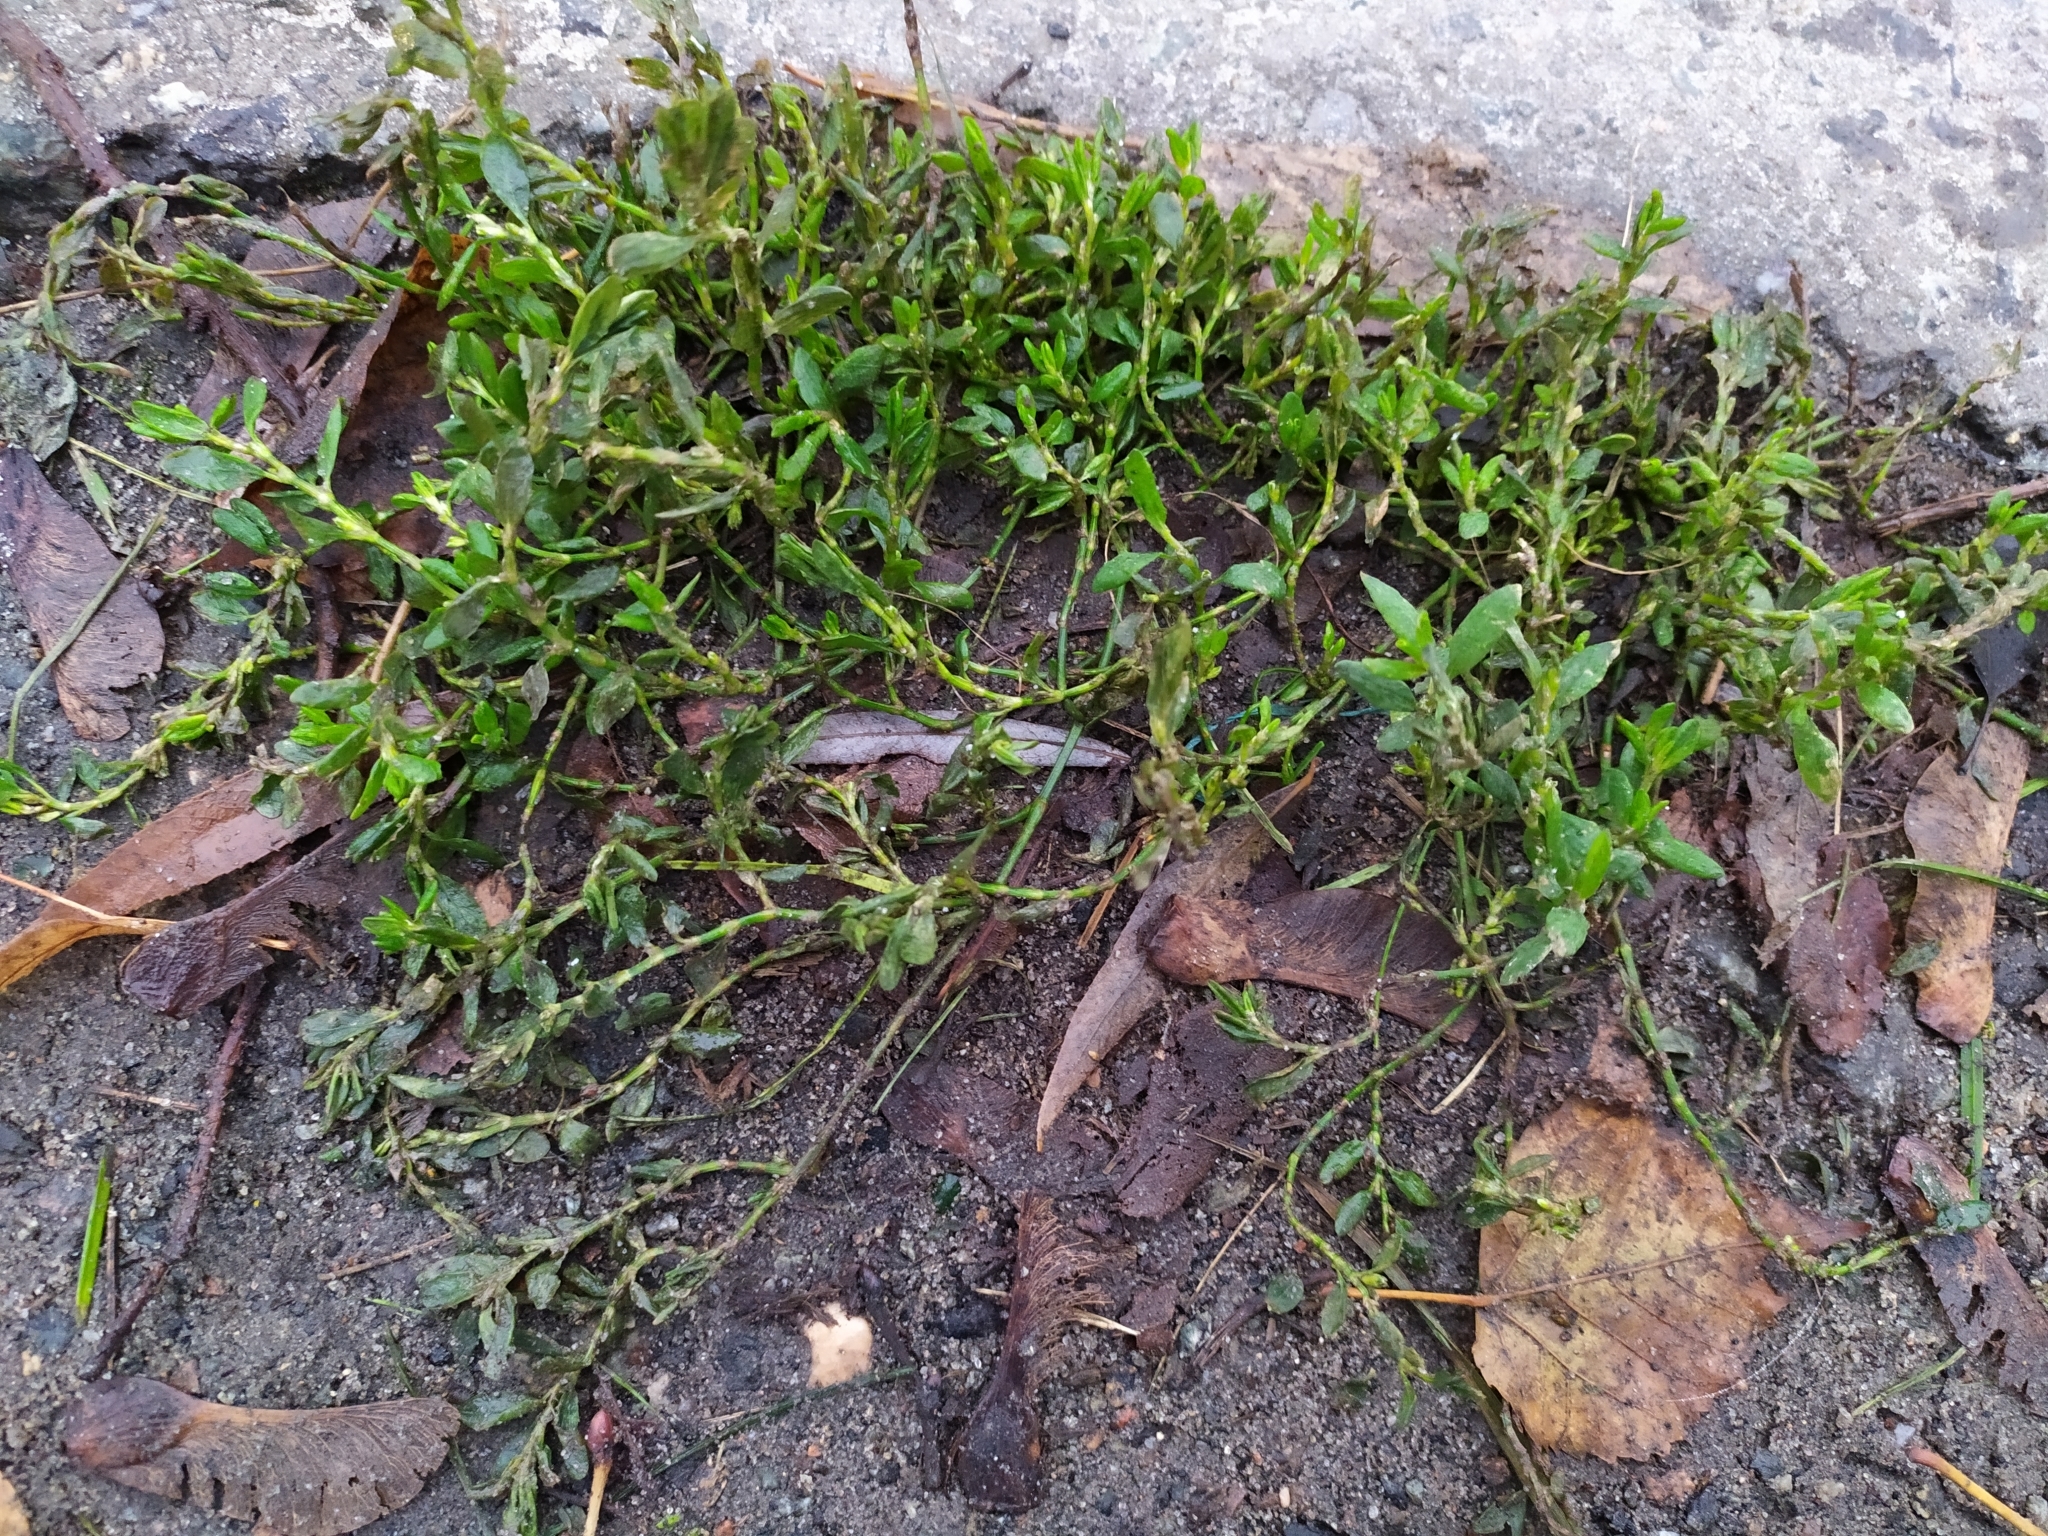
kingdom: Plantae
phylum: Tracheophyta
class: Magnoliopsida
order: Caryophyllales
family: Polygonaceae
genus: Polygonum
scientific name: Polygonum arenastrum
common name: Equal-leaved knotgrass
